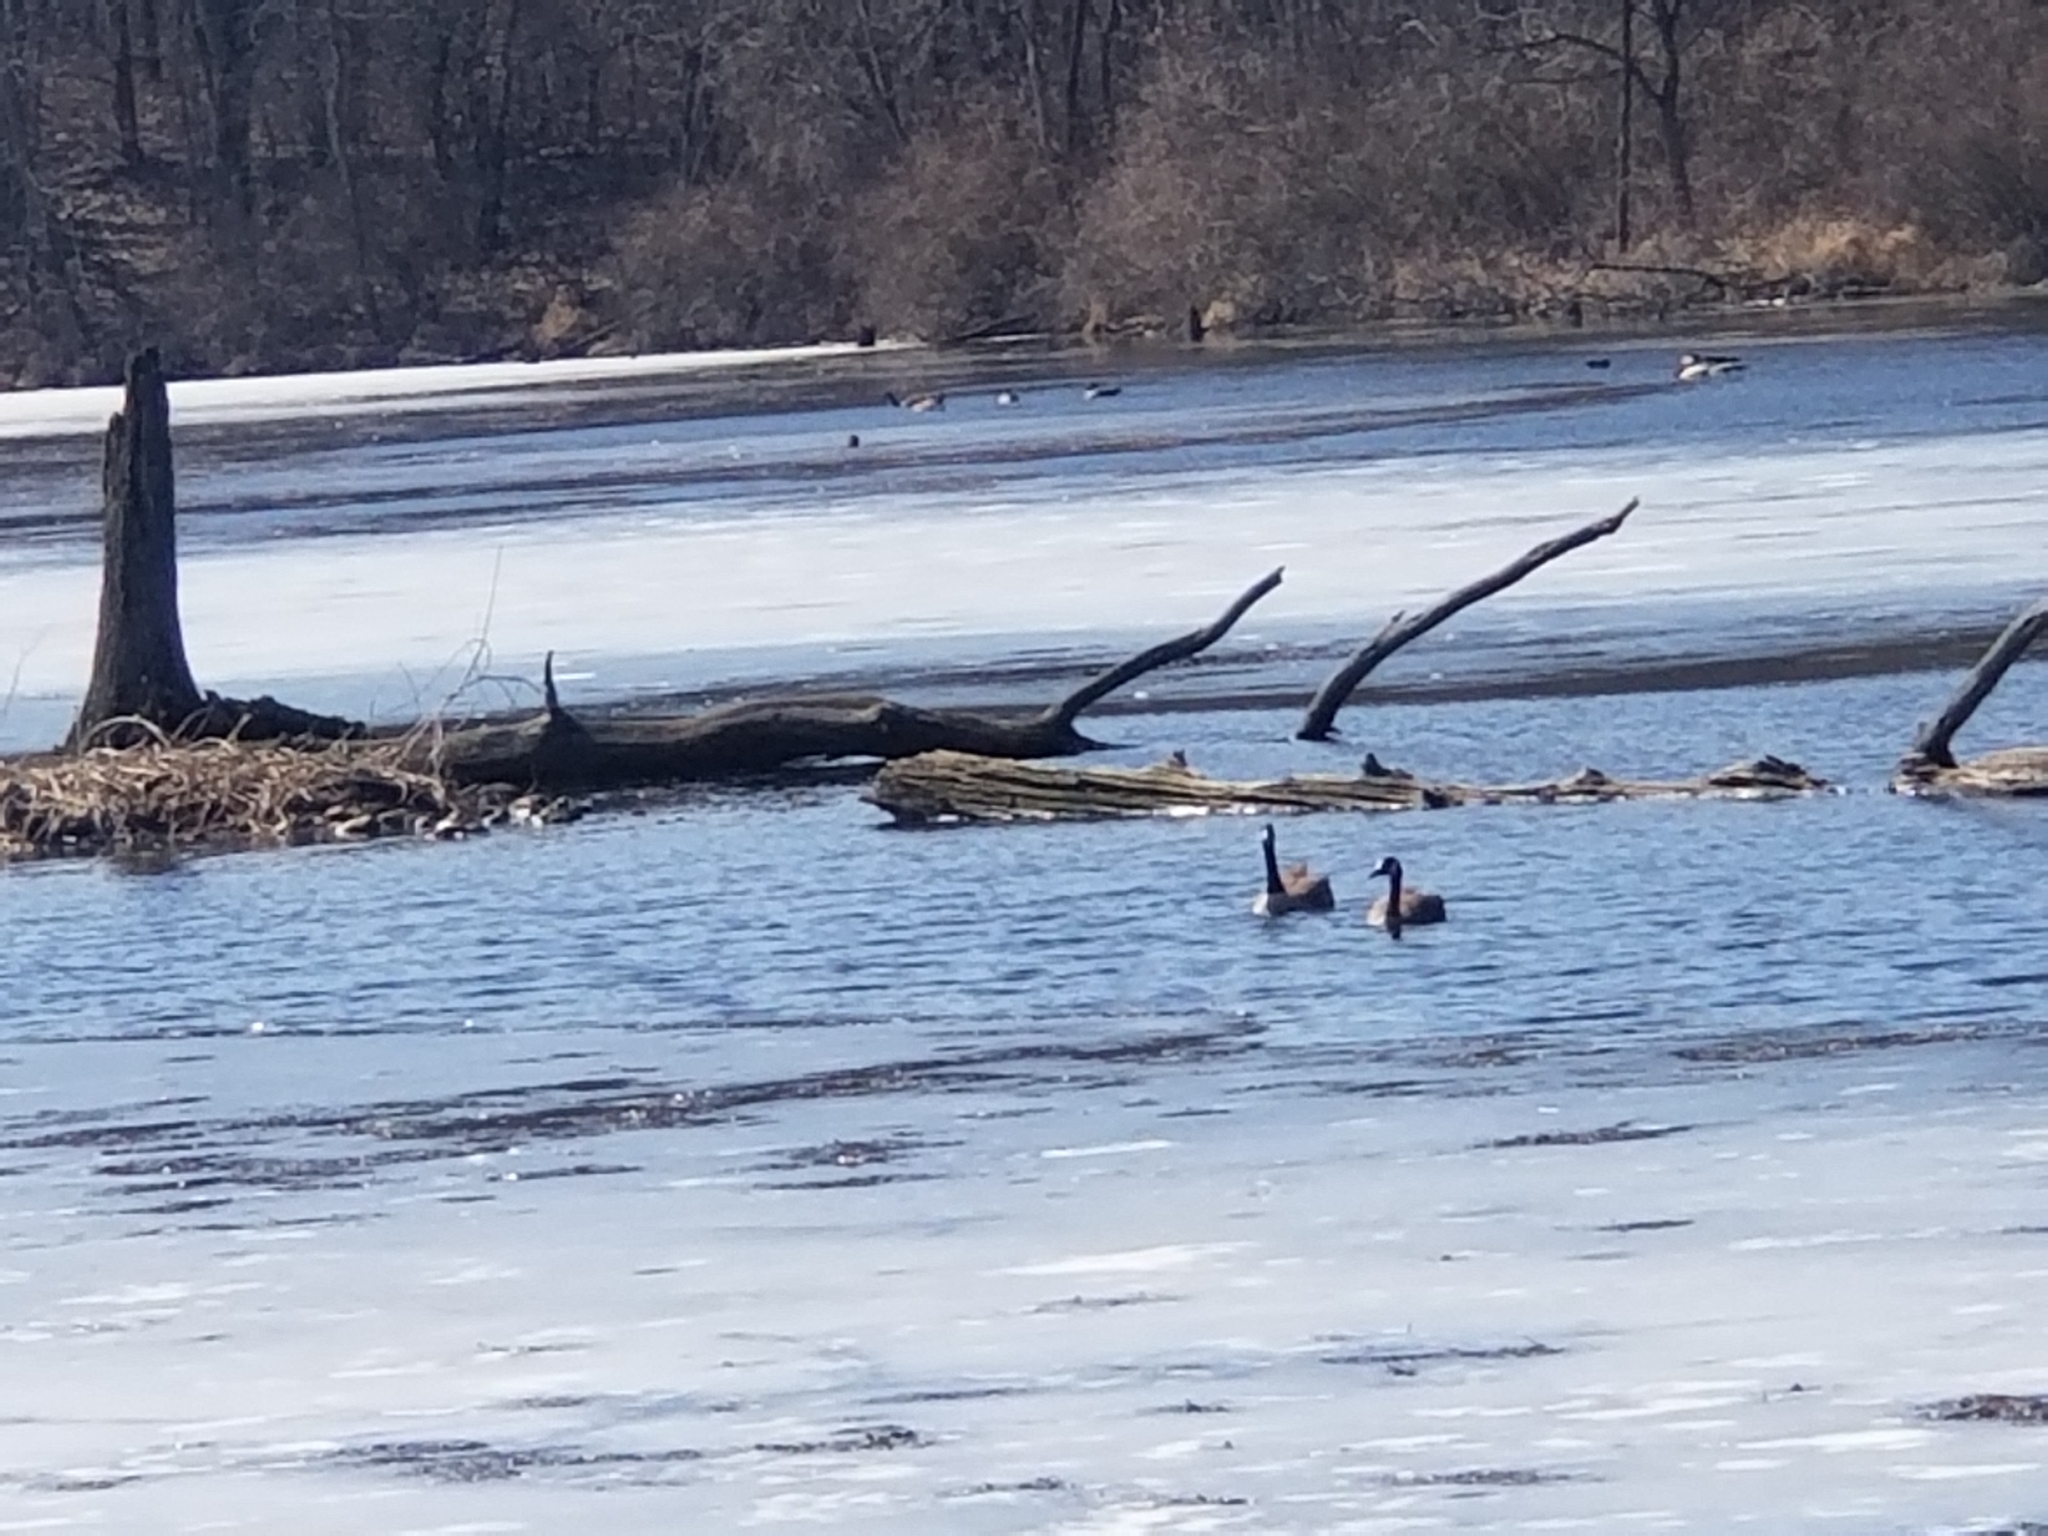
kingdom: Animalia
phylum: Chordata
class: Aves
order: Anseriformes
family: Anatidae
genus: Branta
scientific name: Branta canadensis
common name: Canada goose
